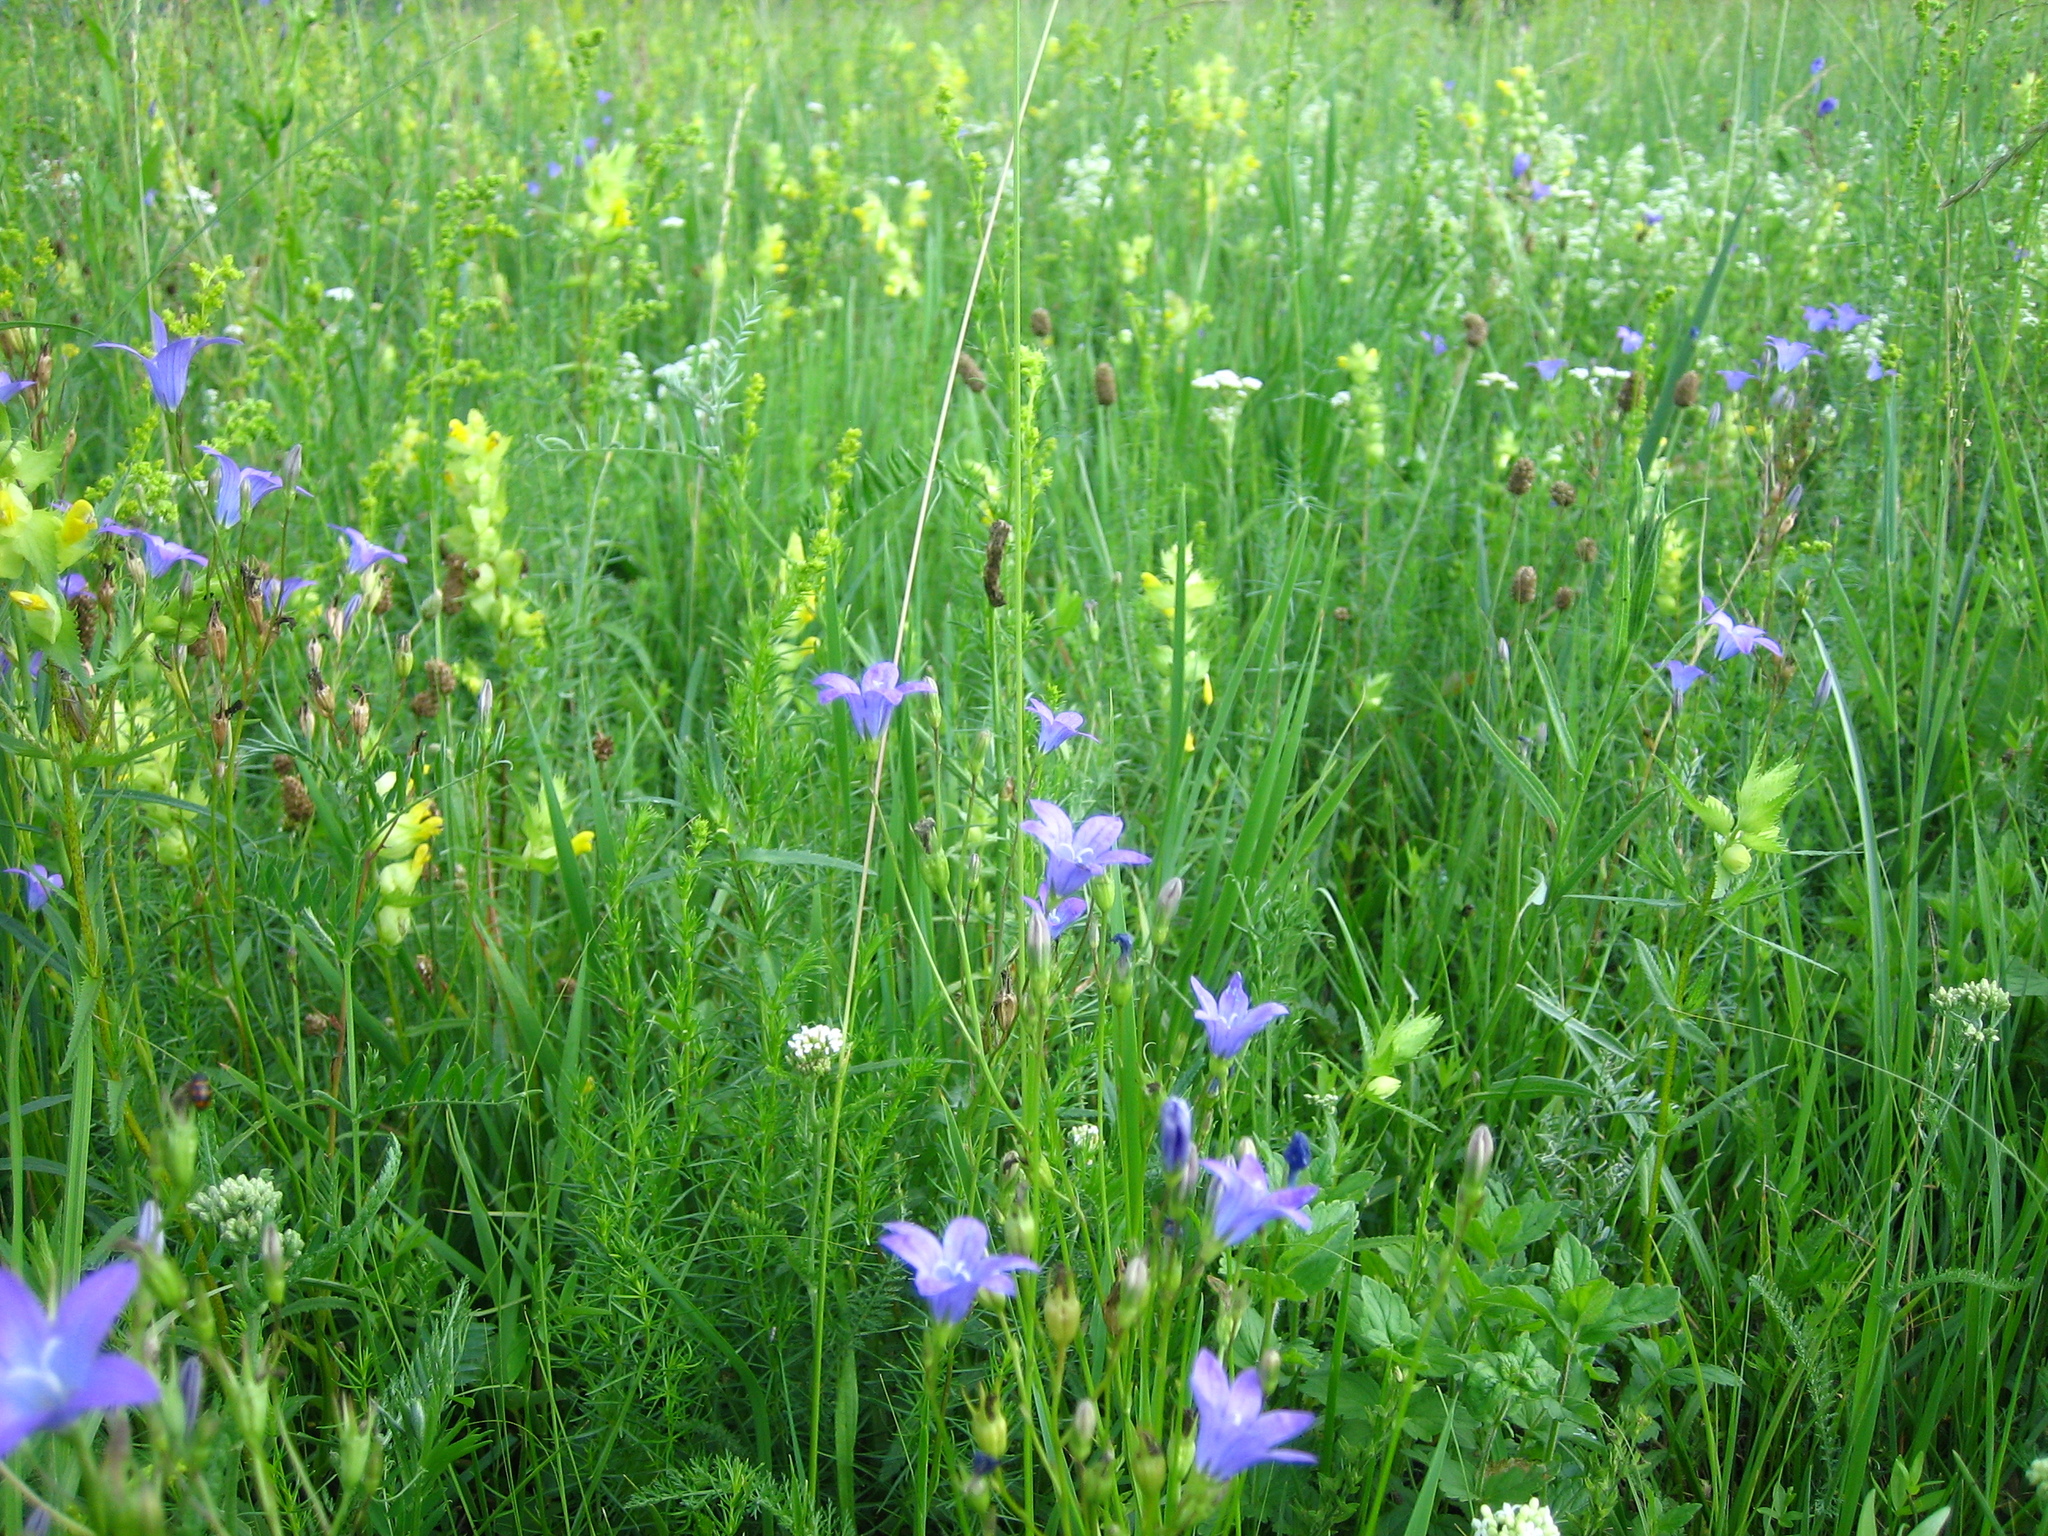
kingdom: Plantae
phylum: Tracheophyta
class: Magnoliopsida
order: Asterales
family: Campanulaceae
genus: Campanula
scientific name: Campanula patula
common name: Spreading bellflower
